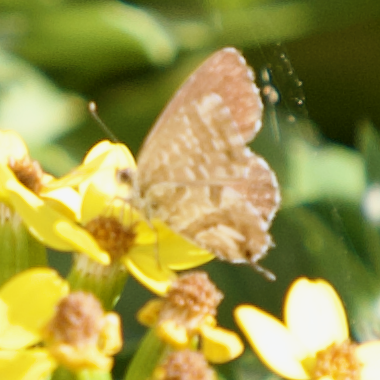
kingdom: Animalia
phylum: Arthropoda
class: Insecta
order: Lepidoptera
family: Lycaenidae
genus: Cacyreus
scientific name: Cacyreus marshalli
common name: Geranium bronze
